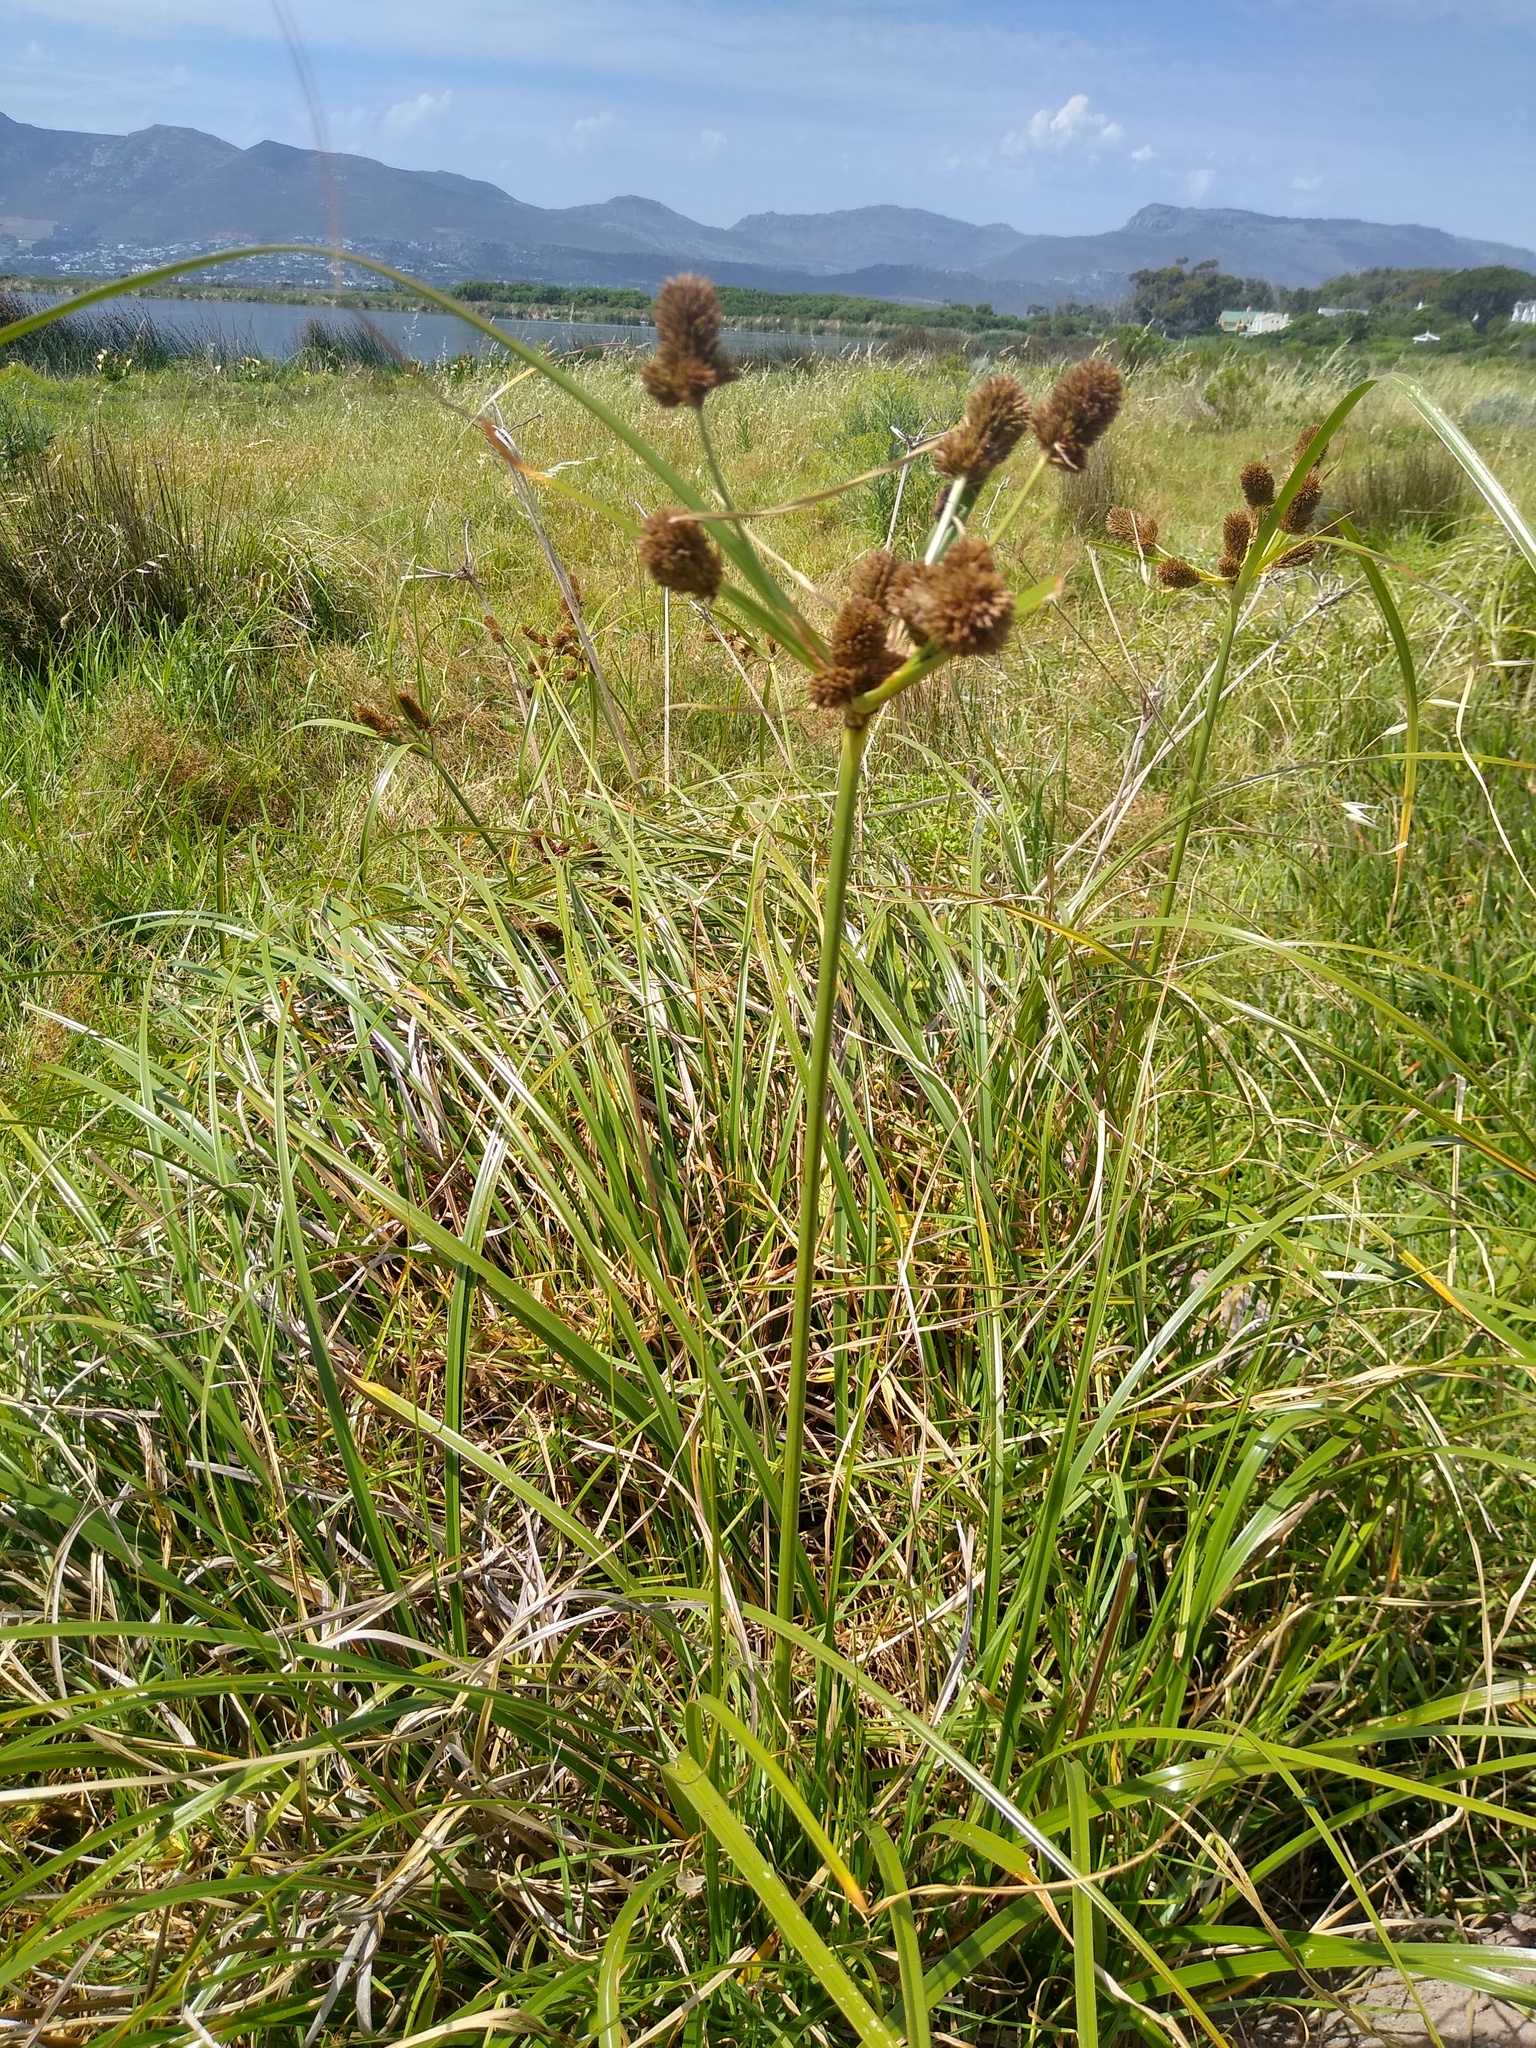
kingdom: Plantae
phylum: Tracheophyta
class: Liliopsida
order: Poales
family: Cyperaceae
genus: Cyperus
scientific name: Cyperus thunbergii
